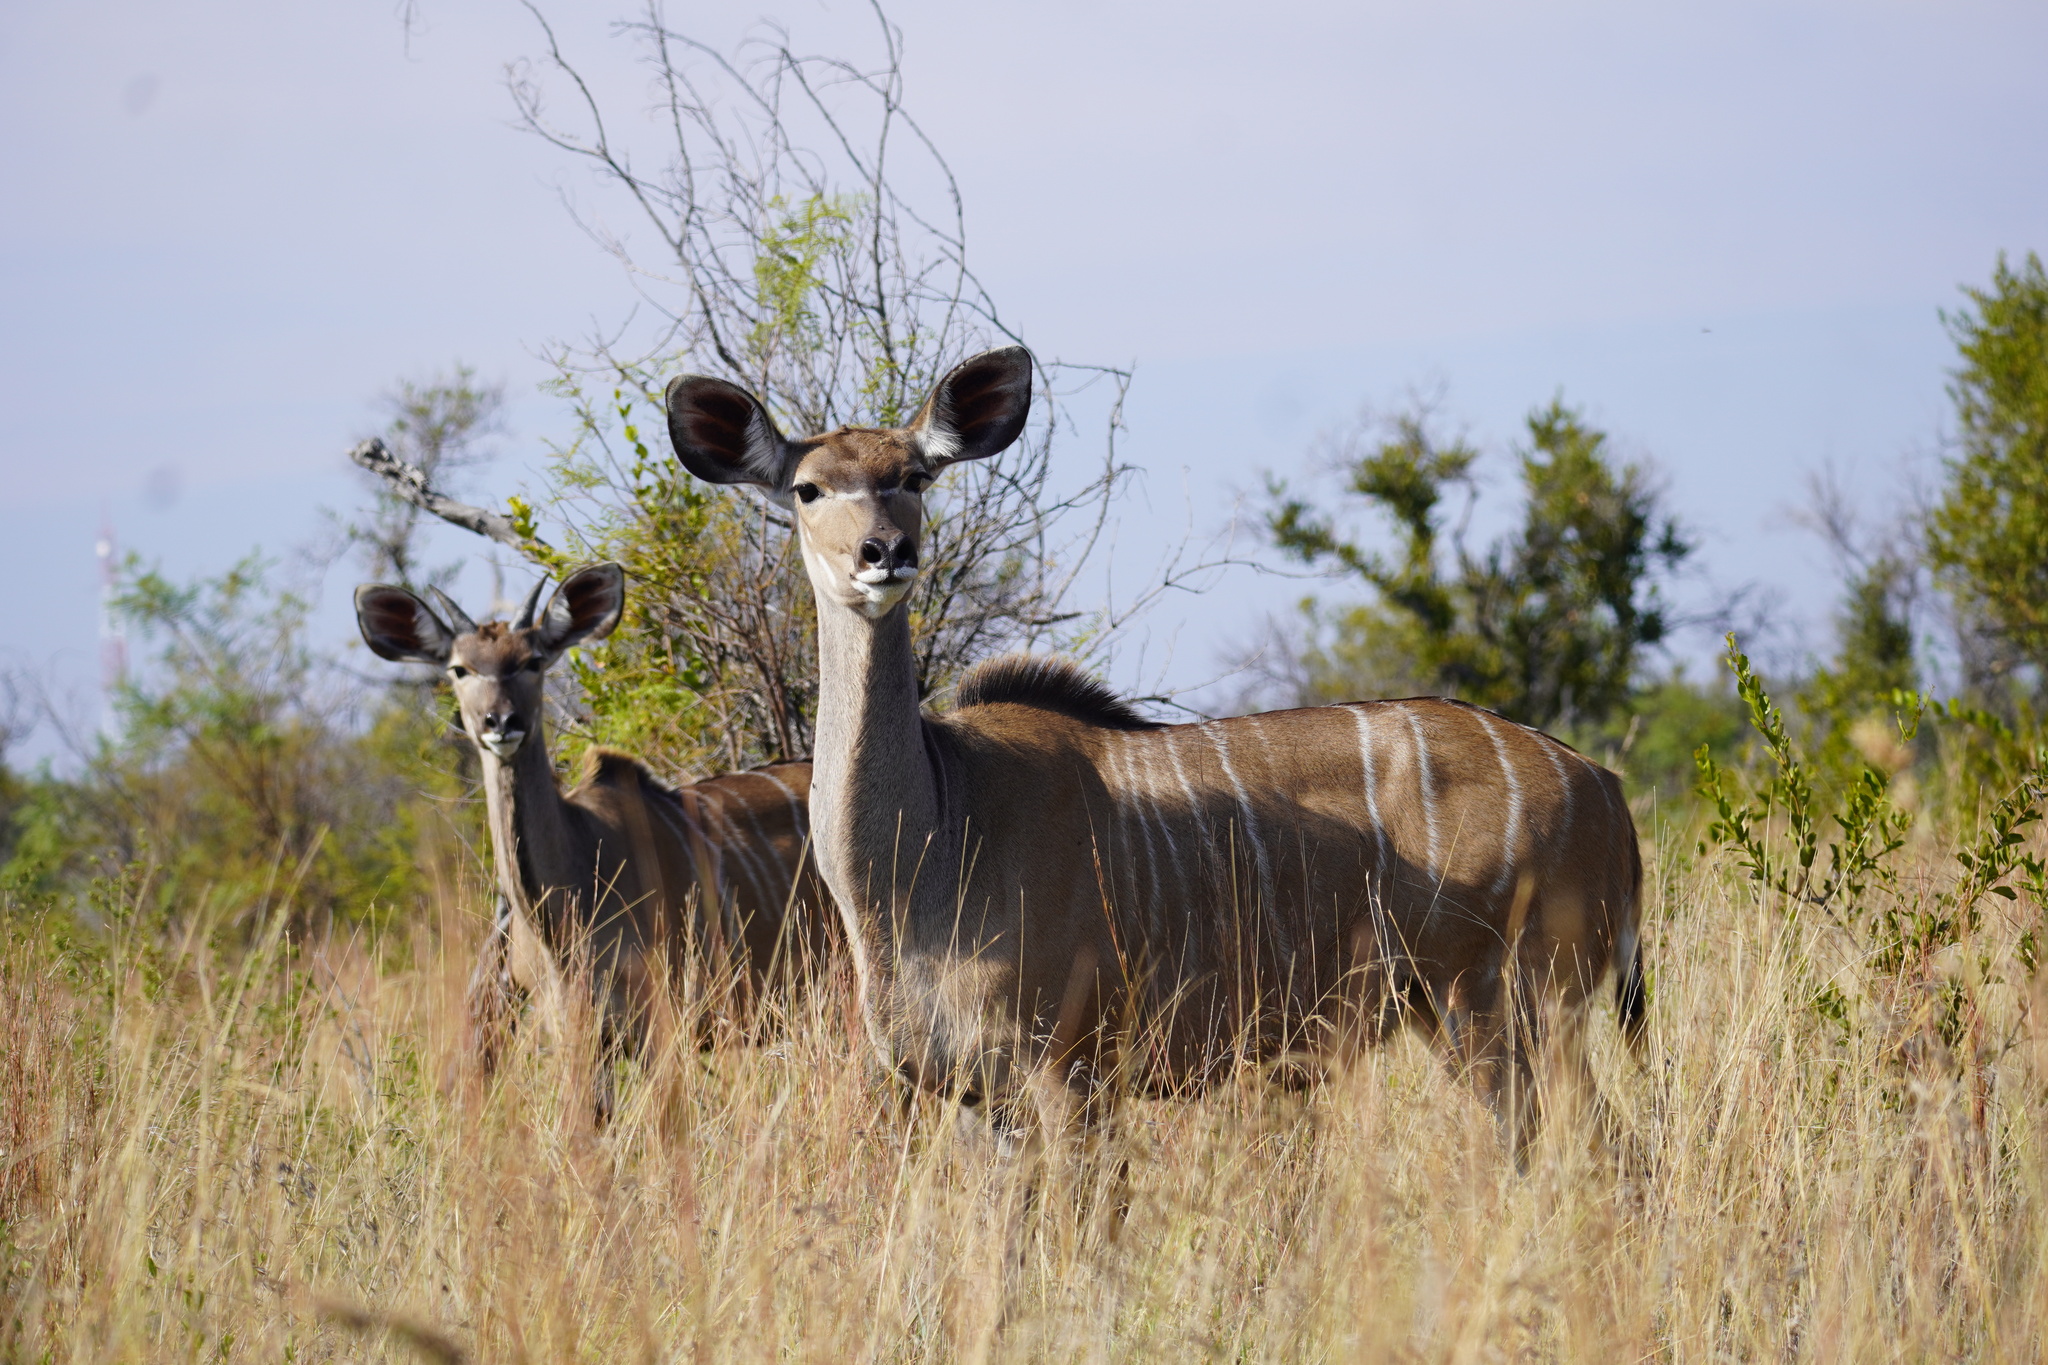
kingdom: Animalia
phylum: Chordata
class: Mammalia
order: Artiodactyla
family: Bovidae
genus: Tragelaphus
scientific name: Tragelaphus strepsiceros
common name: Greater kudu
